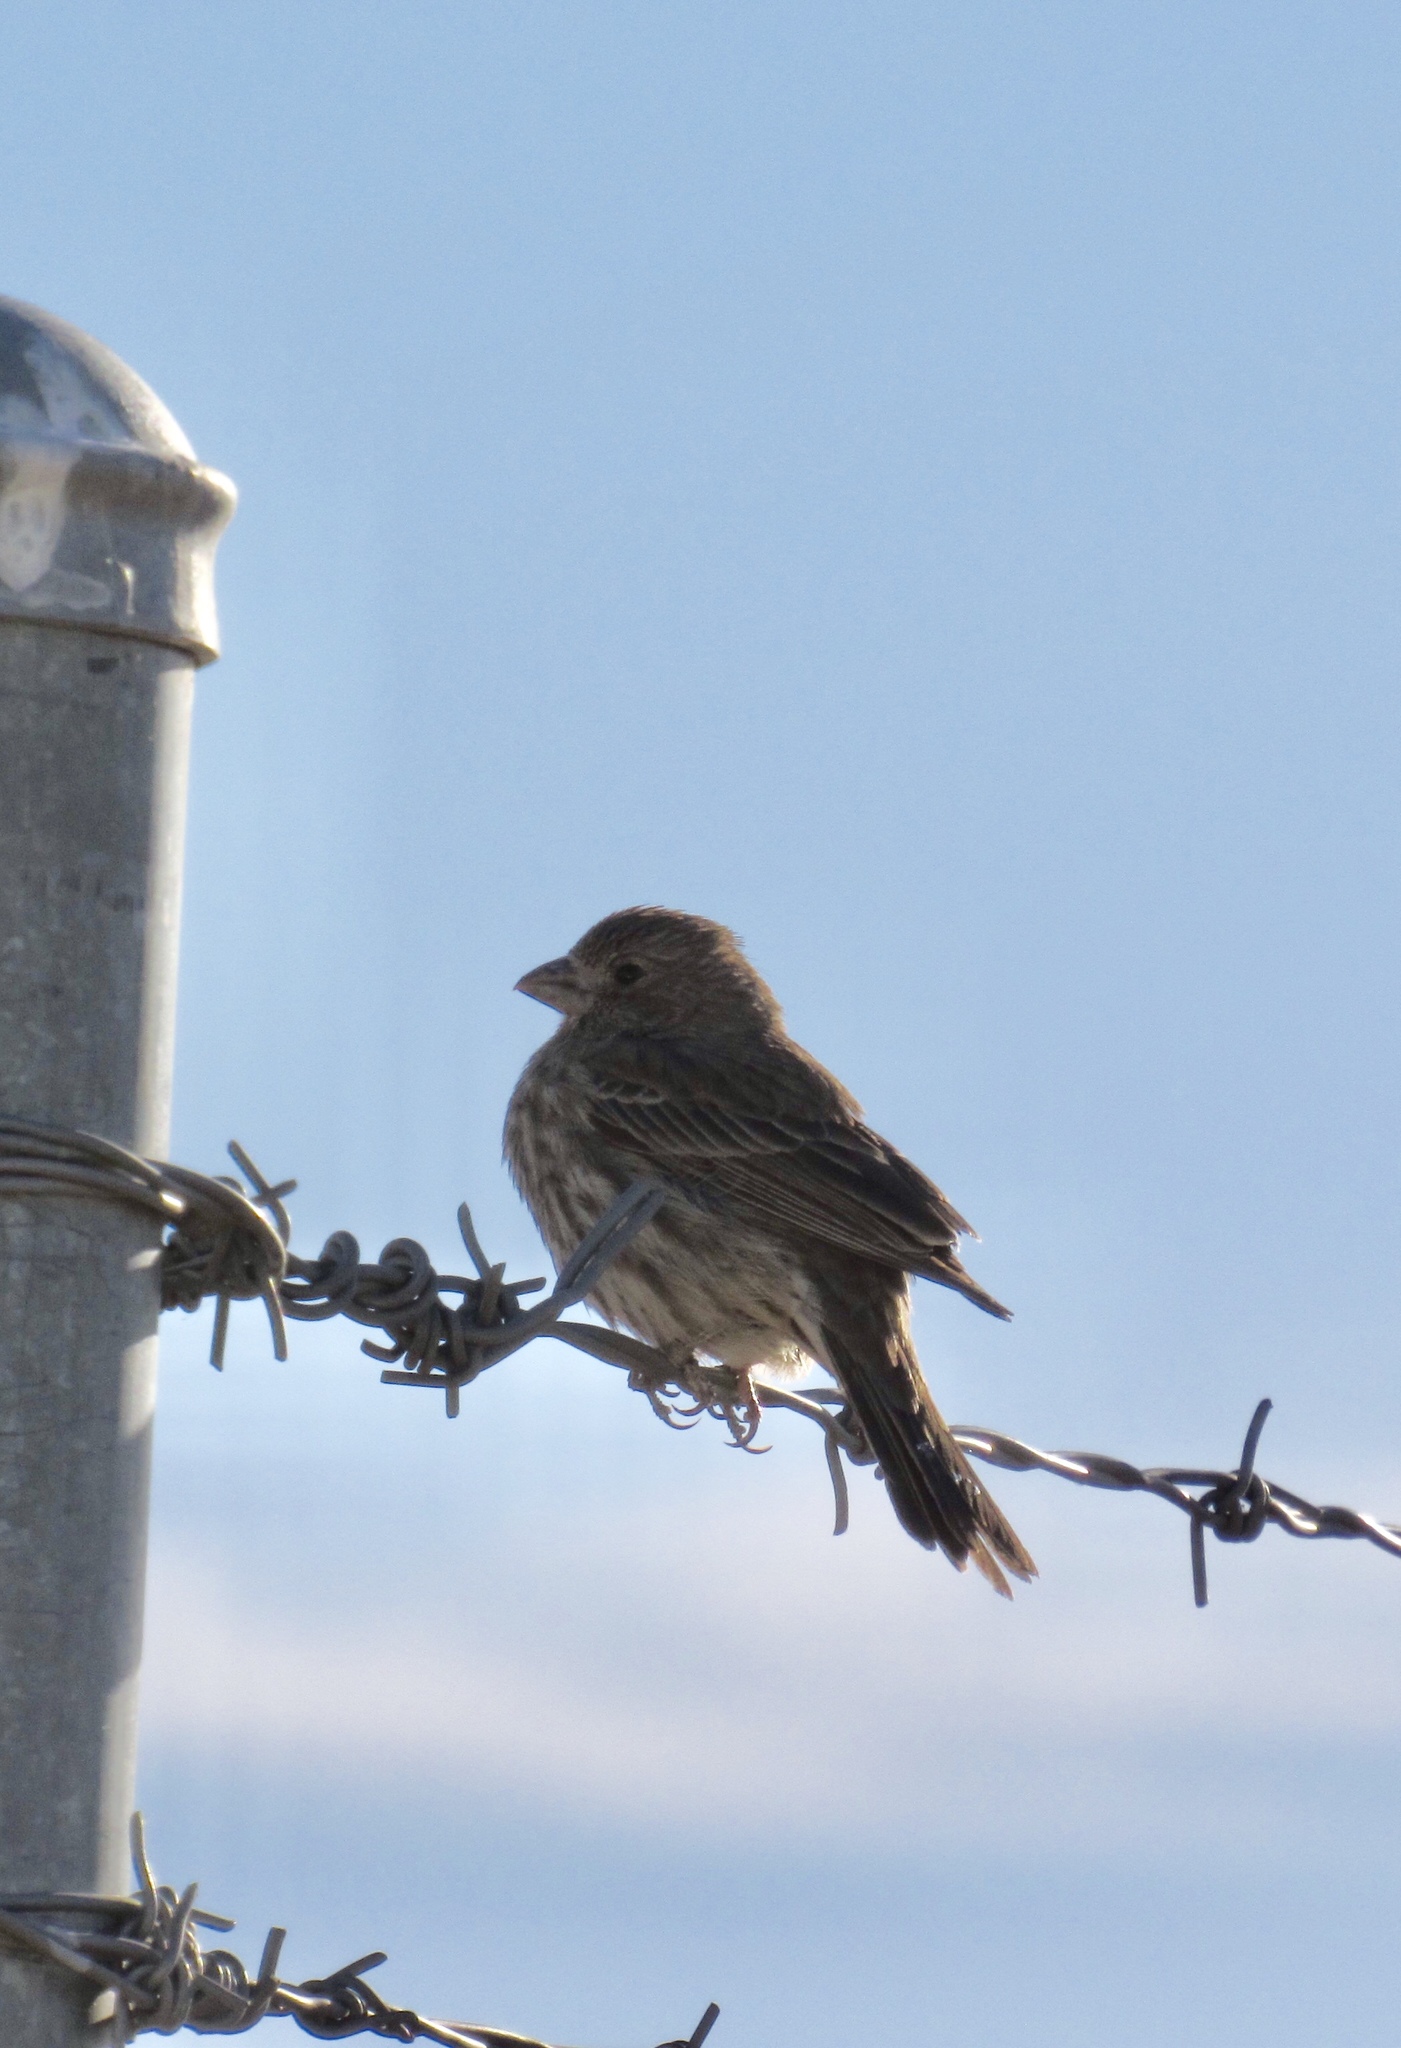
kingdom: Animalia
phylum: Chordata
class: Aves
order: Passeriformes
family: Fringillidae
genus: Haemorhous
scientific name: Haemorhous mexicanus
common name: House finch
